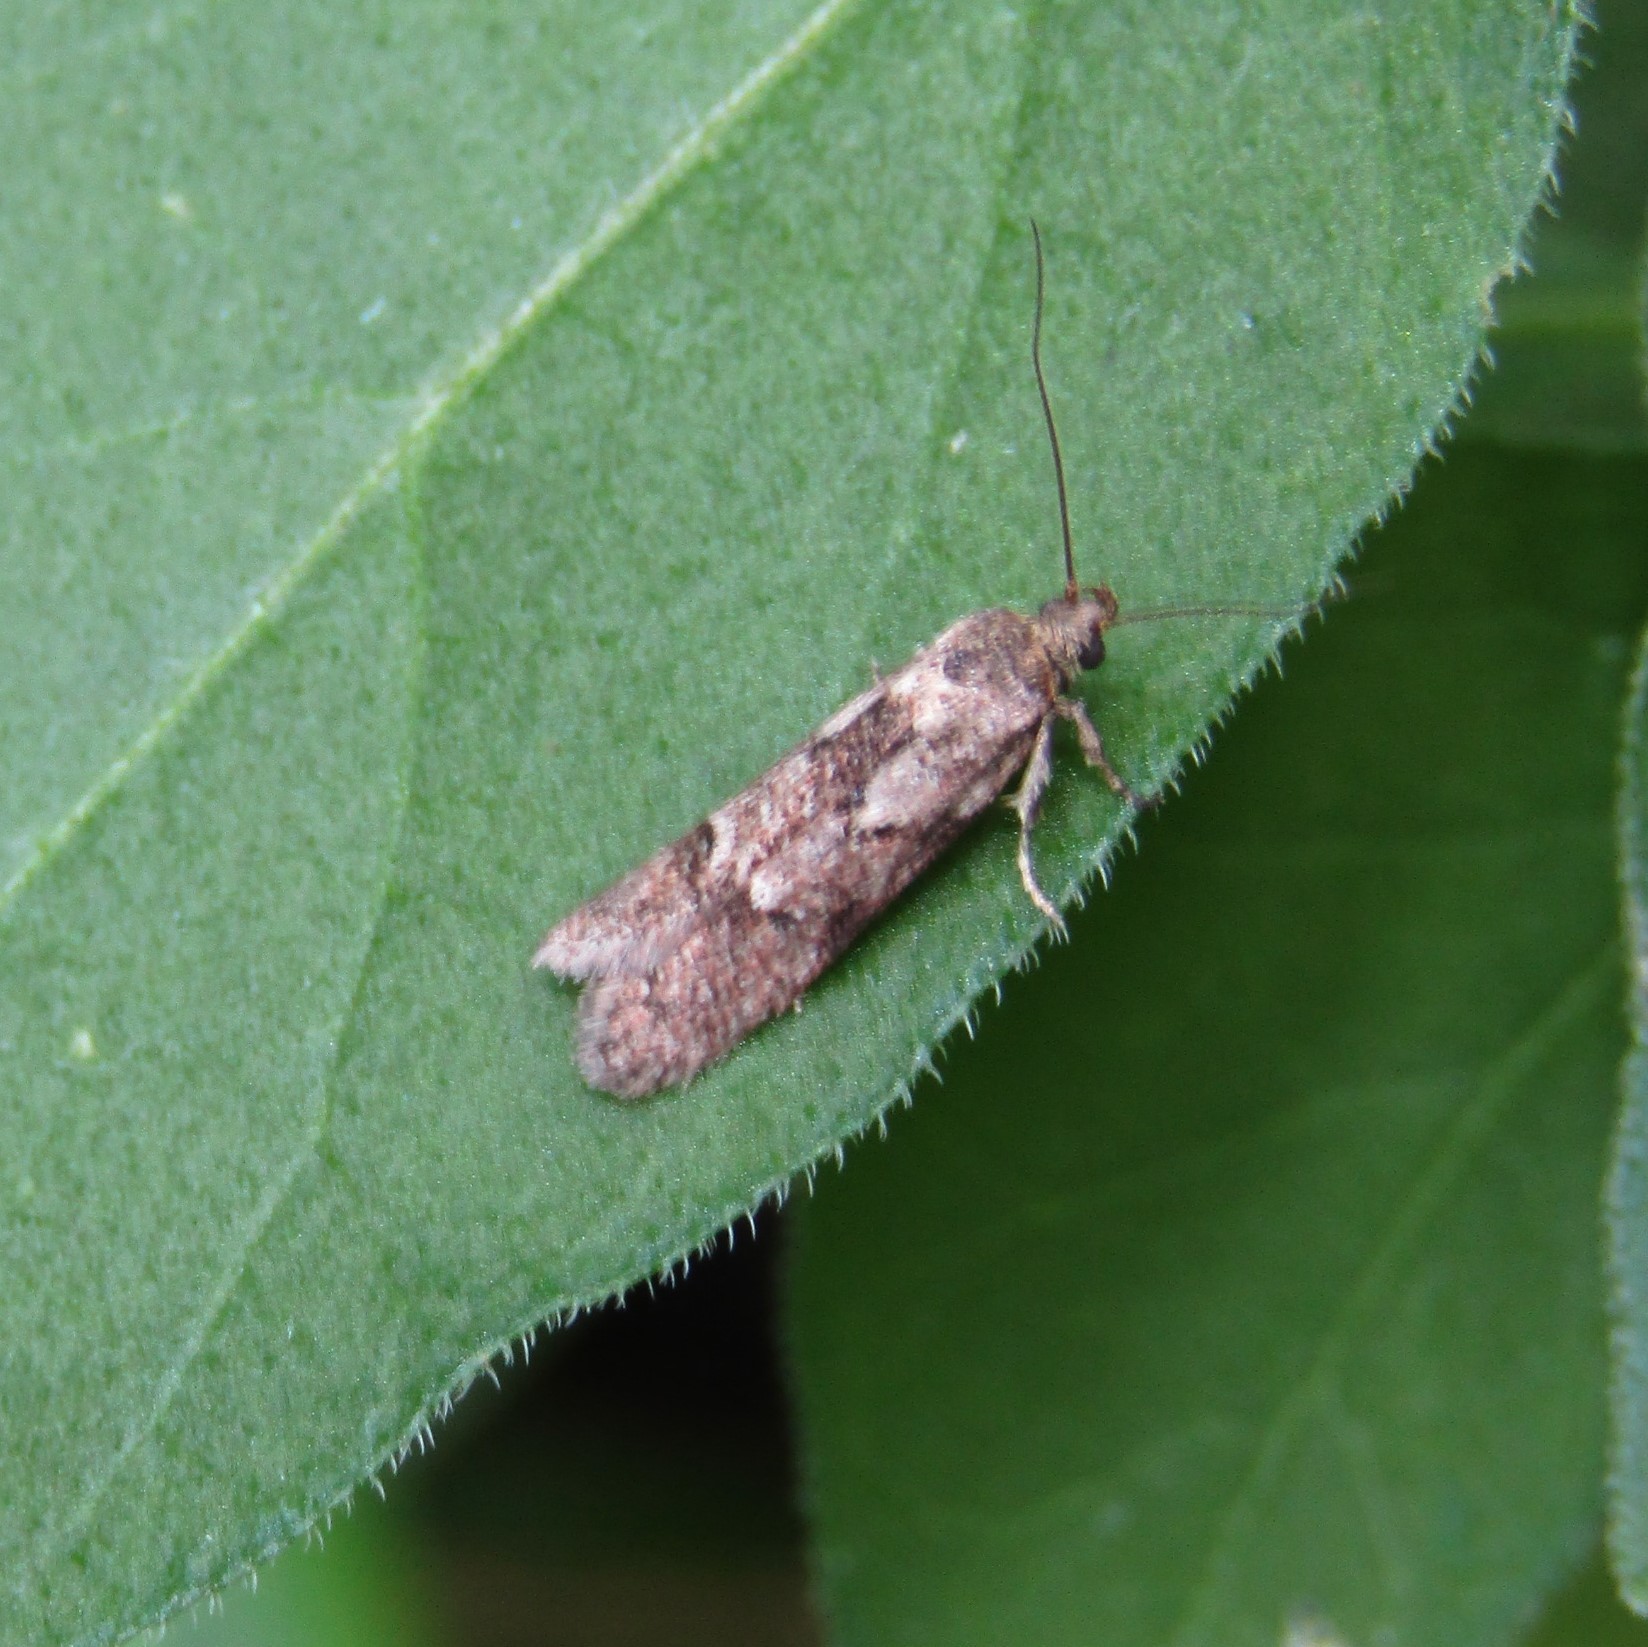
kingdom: Animalia
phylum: Arthropoda
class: Insecta
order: Lepidoptera
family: Oecophoridae
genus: Chersadaula
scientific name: Chersadaula ochrogastra
